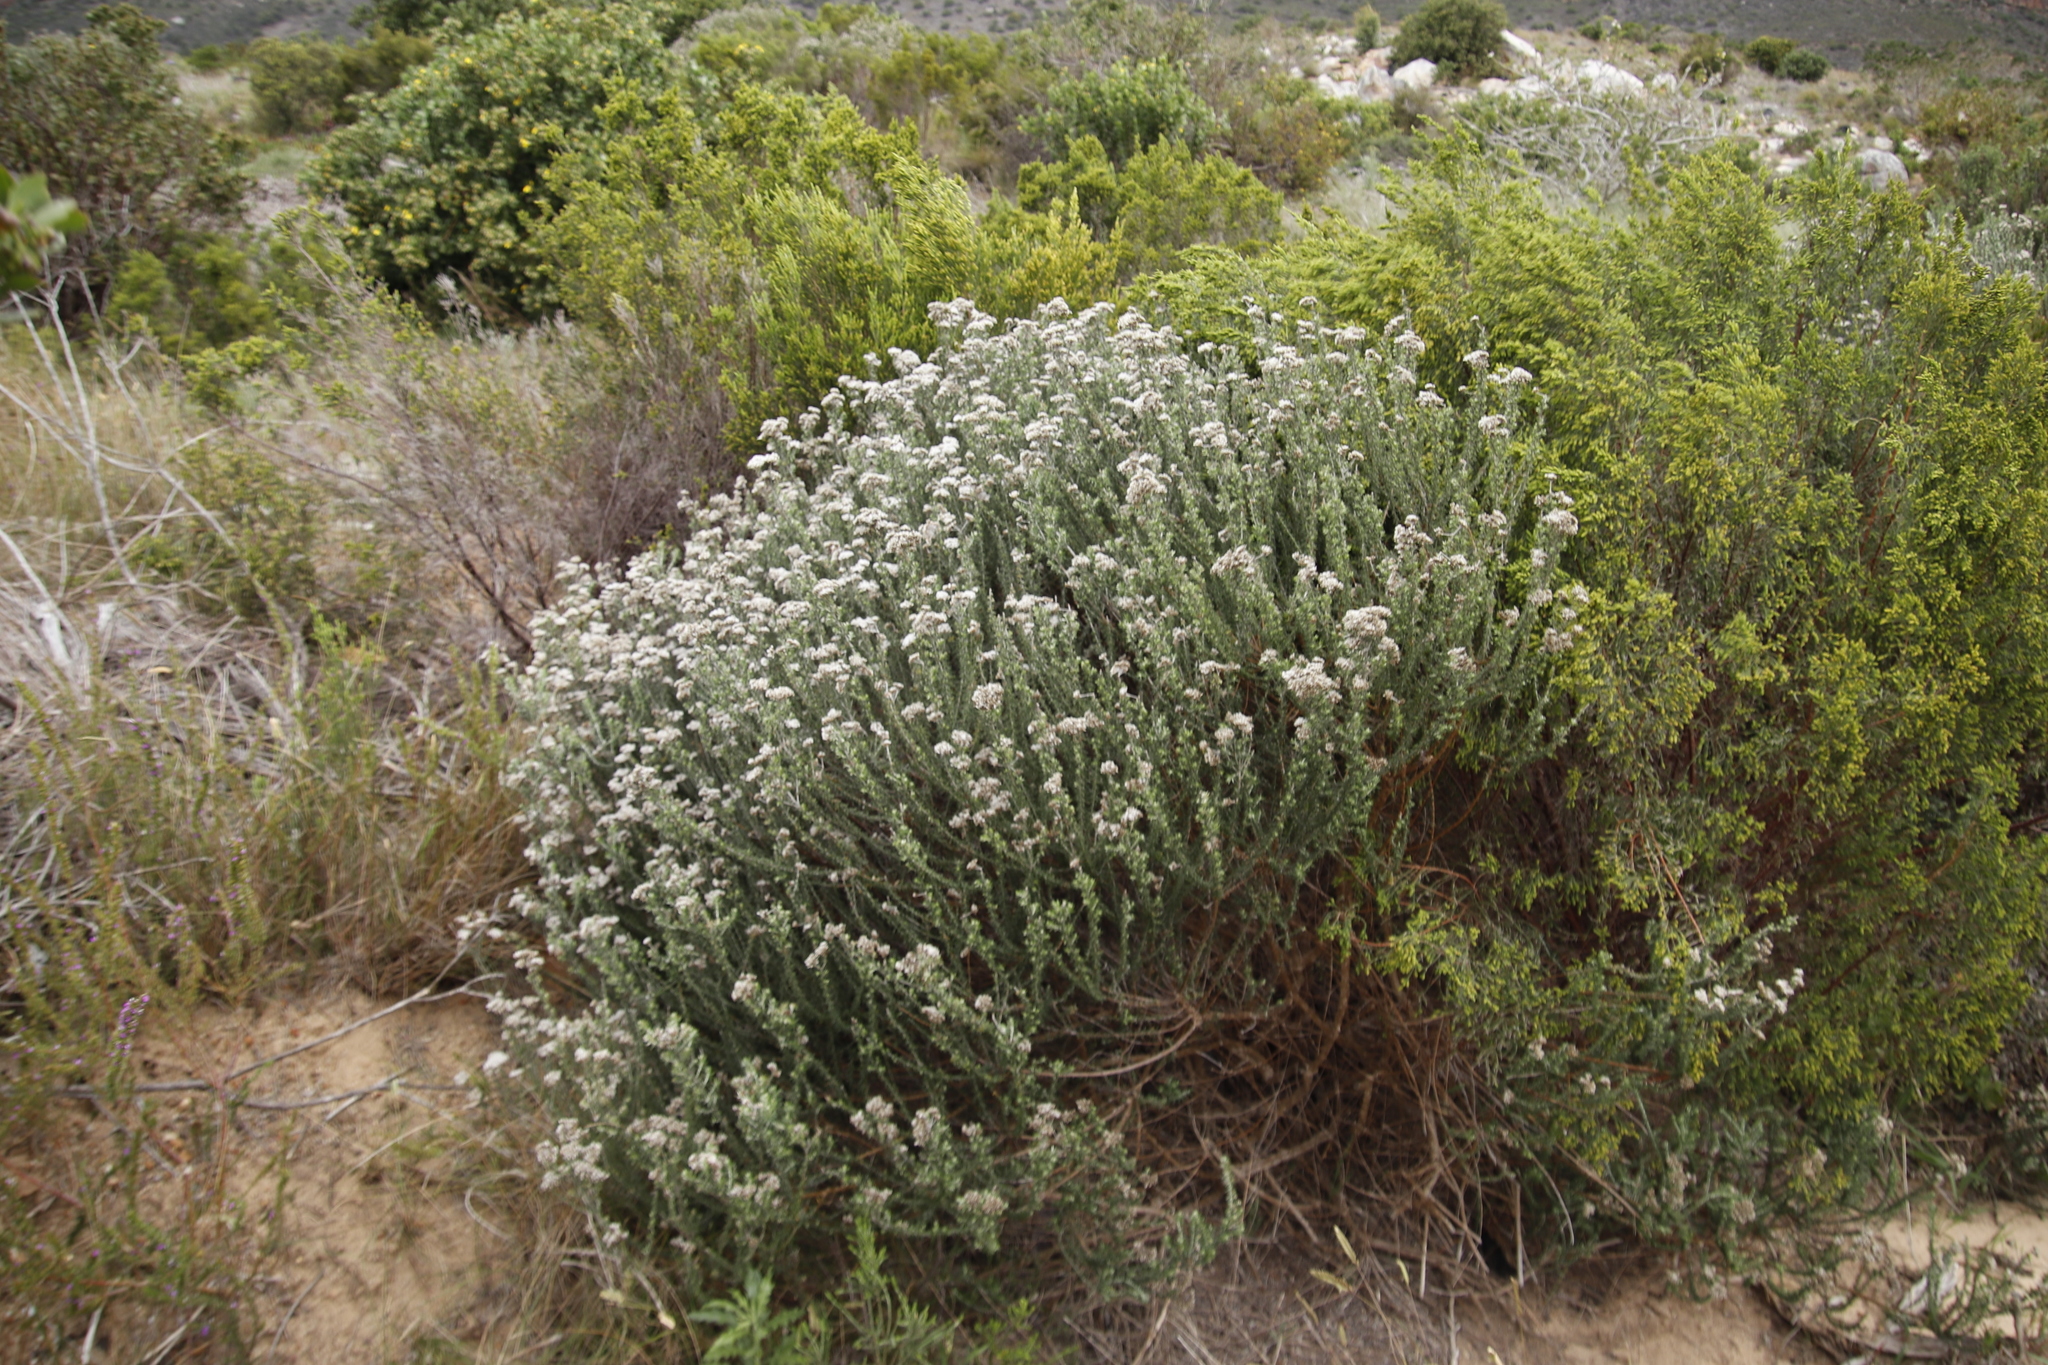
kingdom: Plantae
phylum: Tracheophyta
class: Magnoliopsida
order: Asterales
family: Asteraceae
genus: Metalasia
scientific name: Metalasia densa
